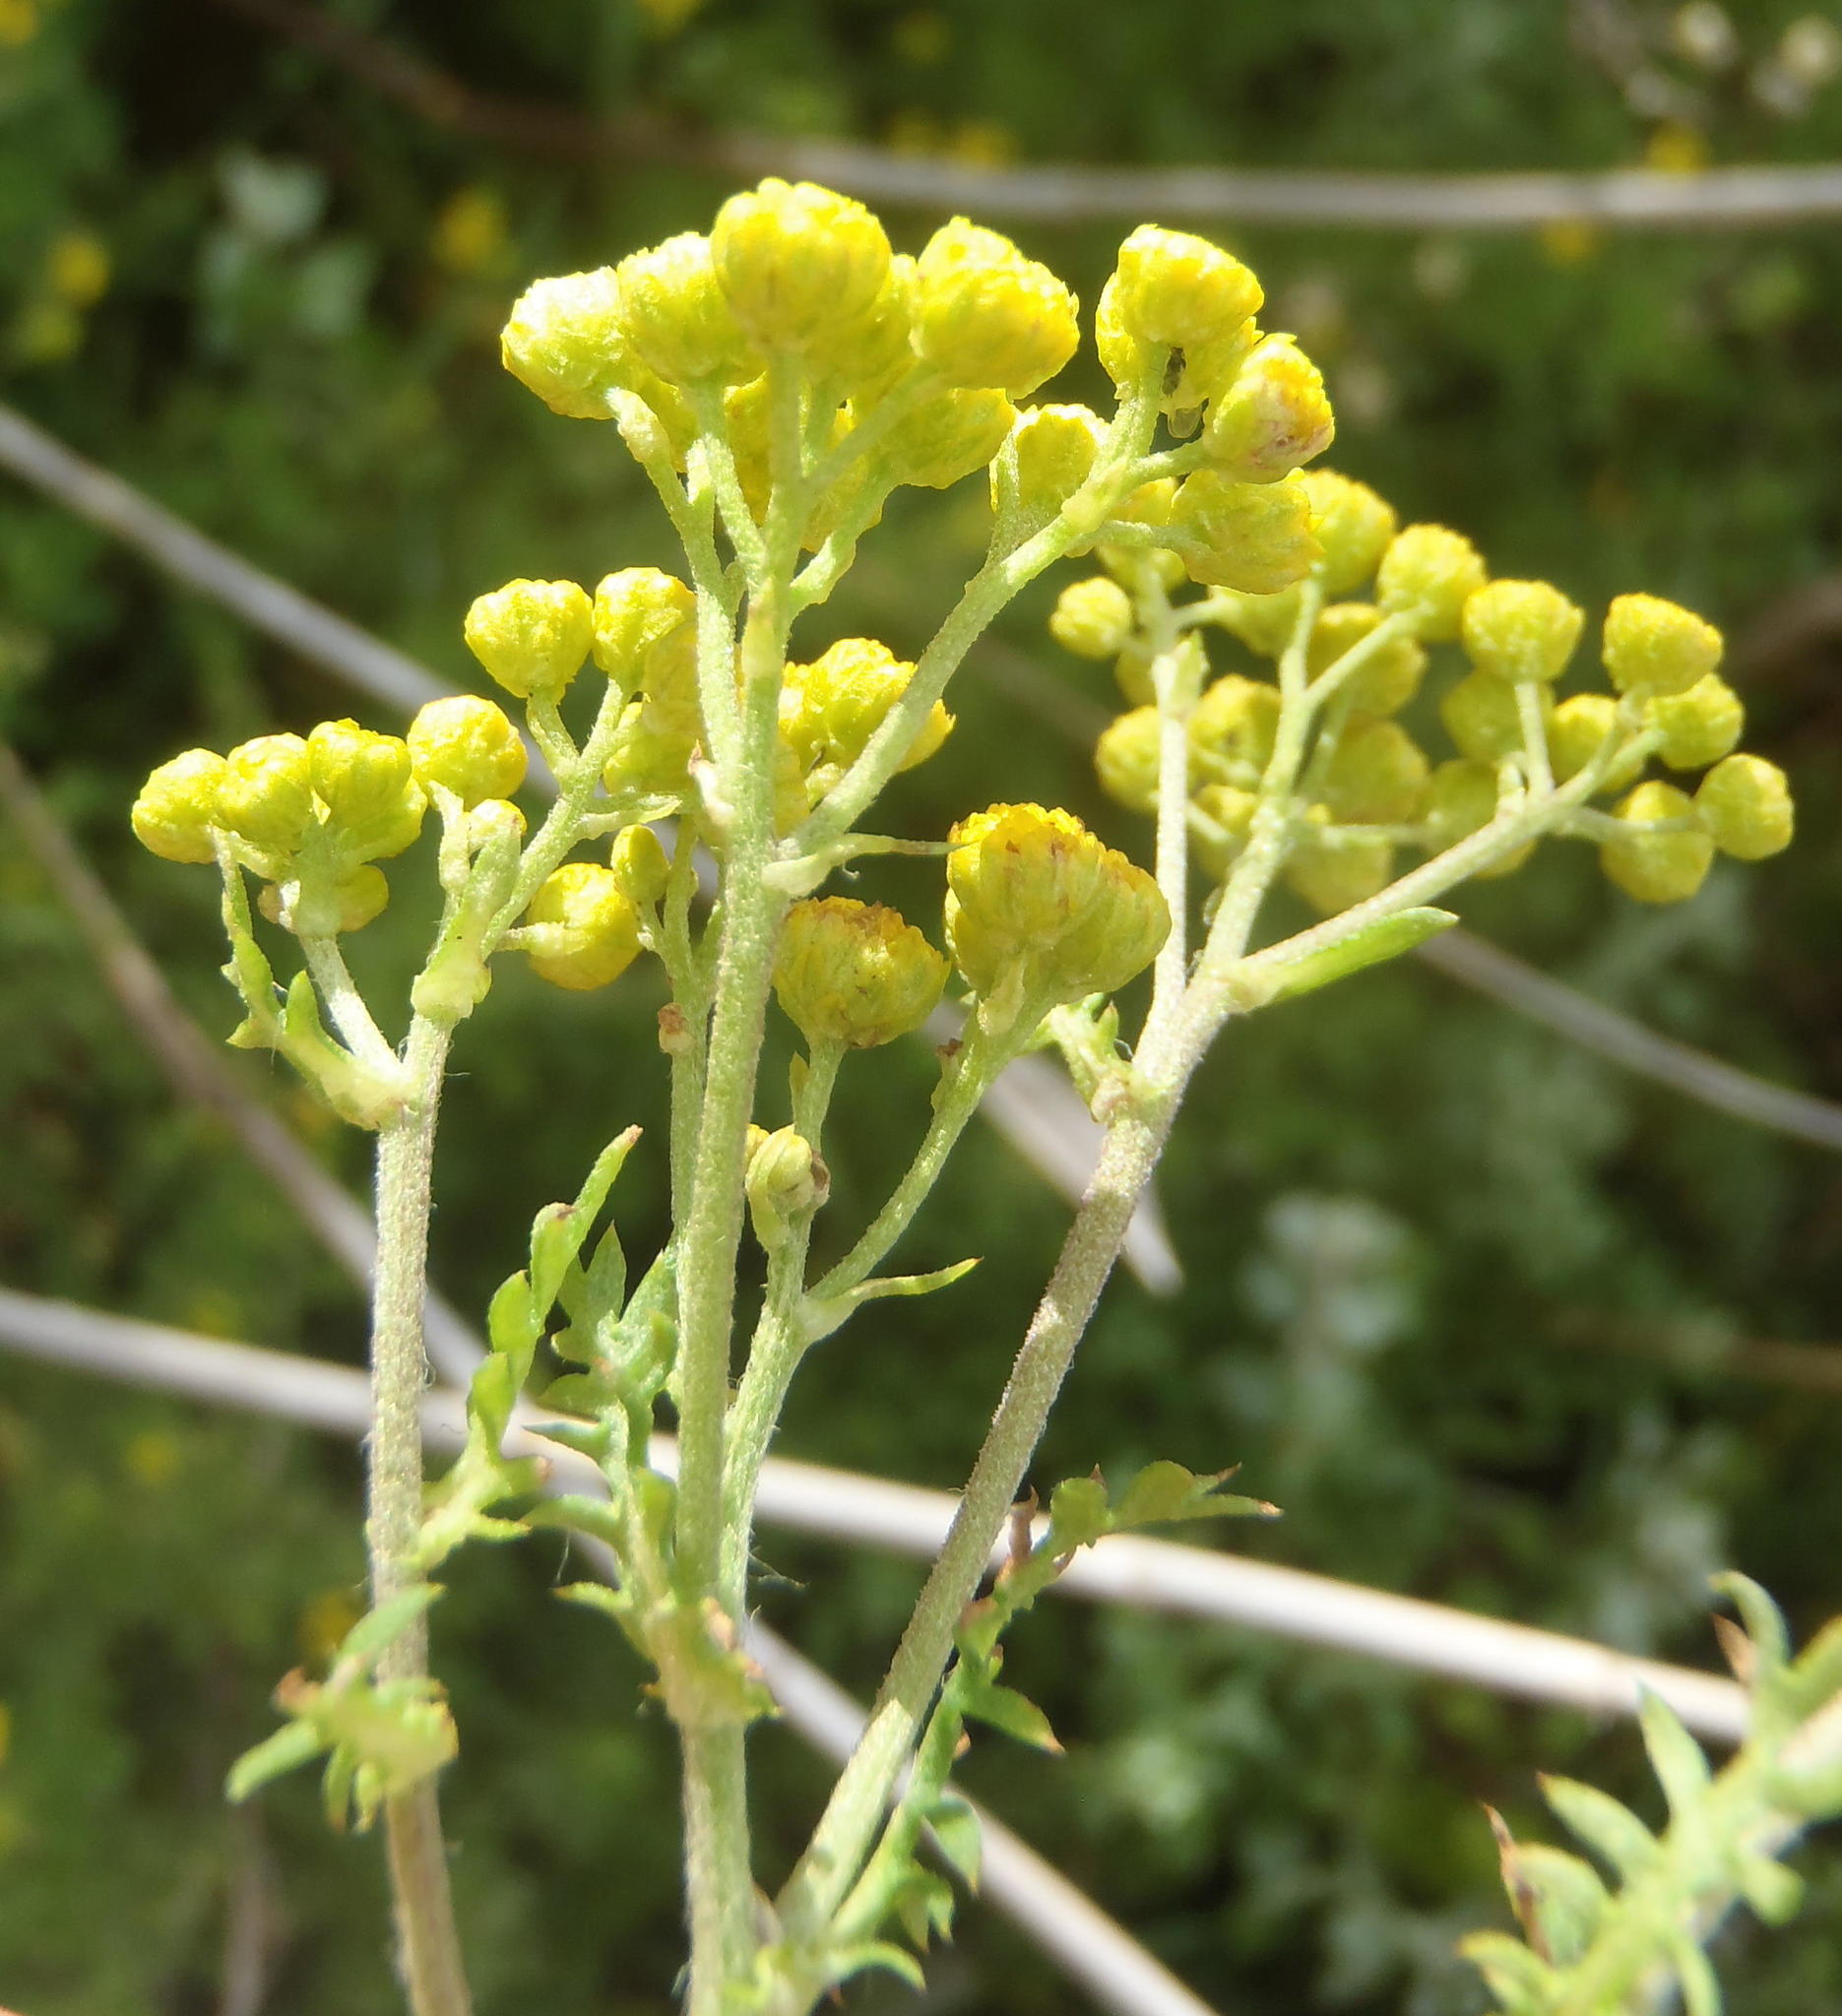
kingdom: Plantae
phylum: Tracheophyta
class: Magnoliopsida
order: Asterales
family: Asteraceae
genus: Hippia
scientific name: Hippia frutescens
